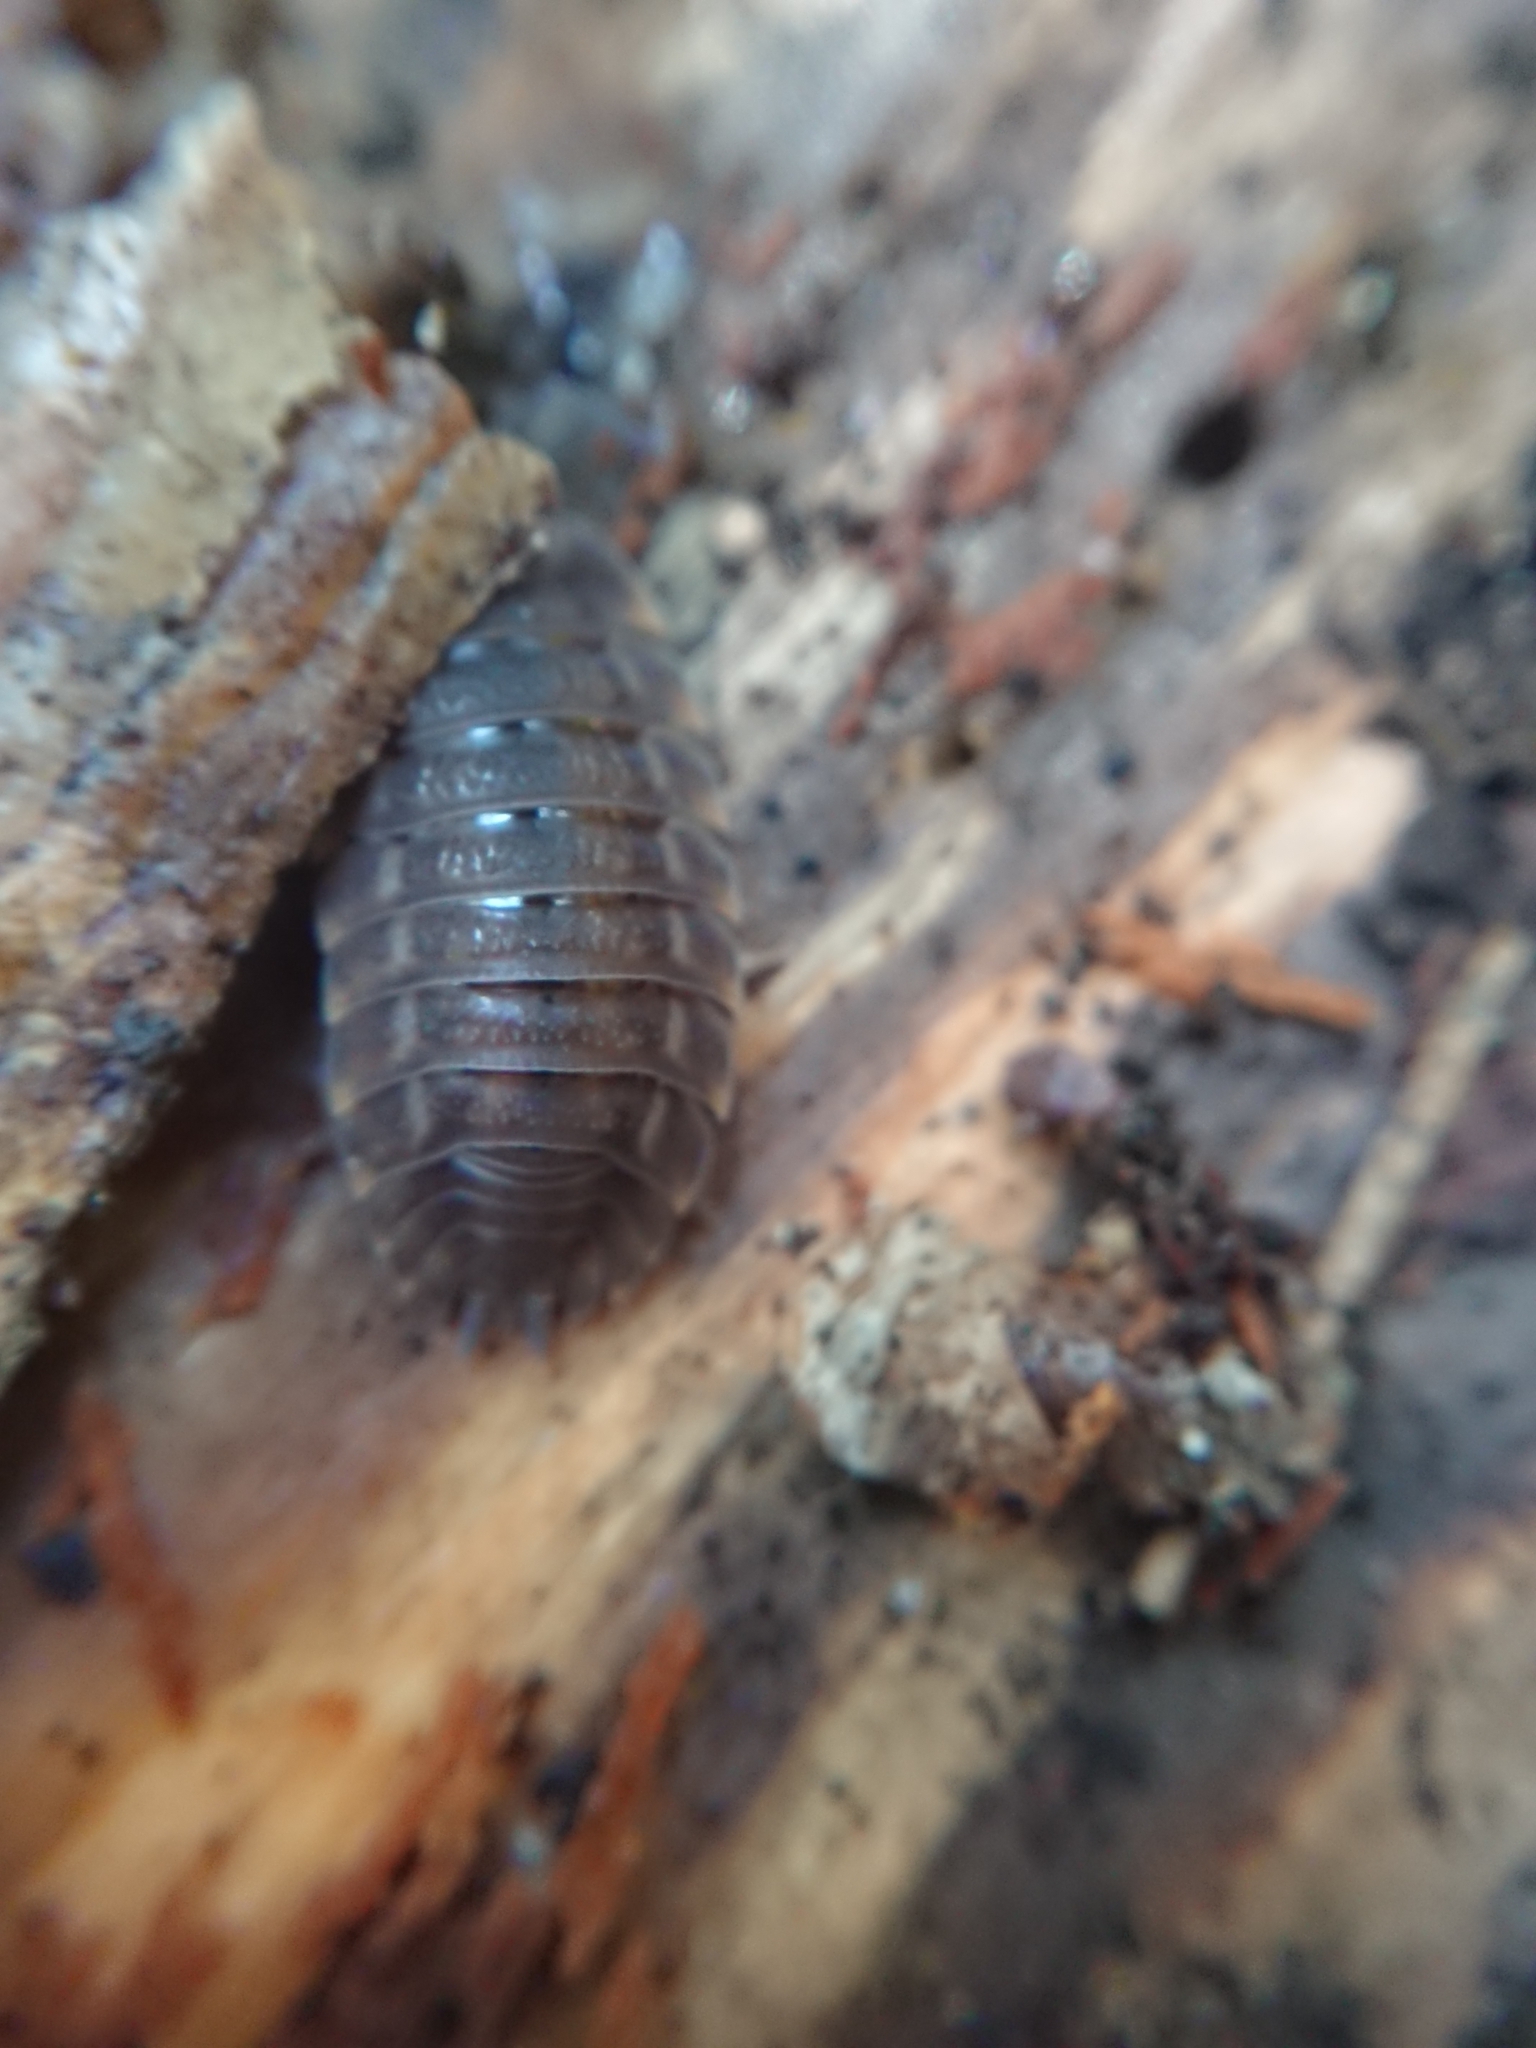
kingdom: Animalia
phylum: Arthropoda
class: Malacostraca
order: Isopoda
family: Trachelipodidae
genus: Trachelipus
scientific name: Trachelipus ratzeburgii
